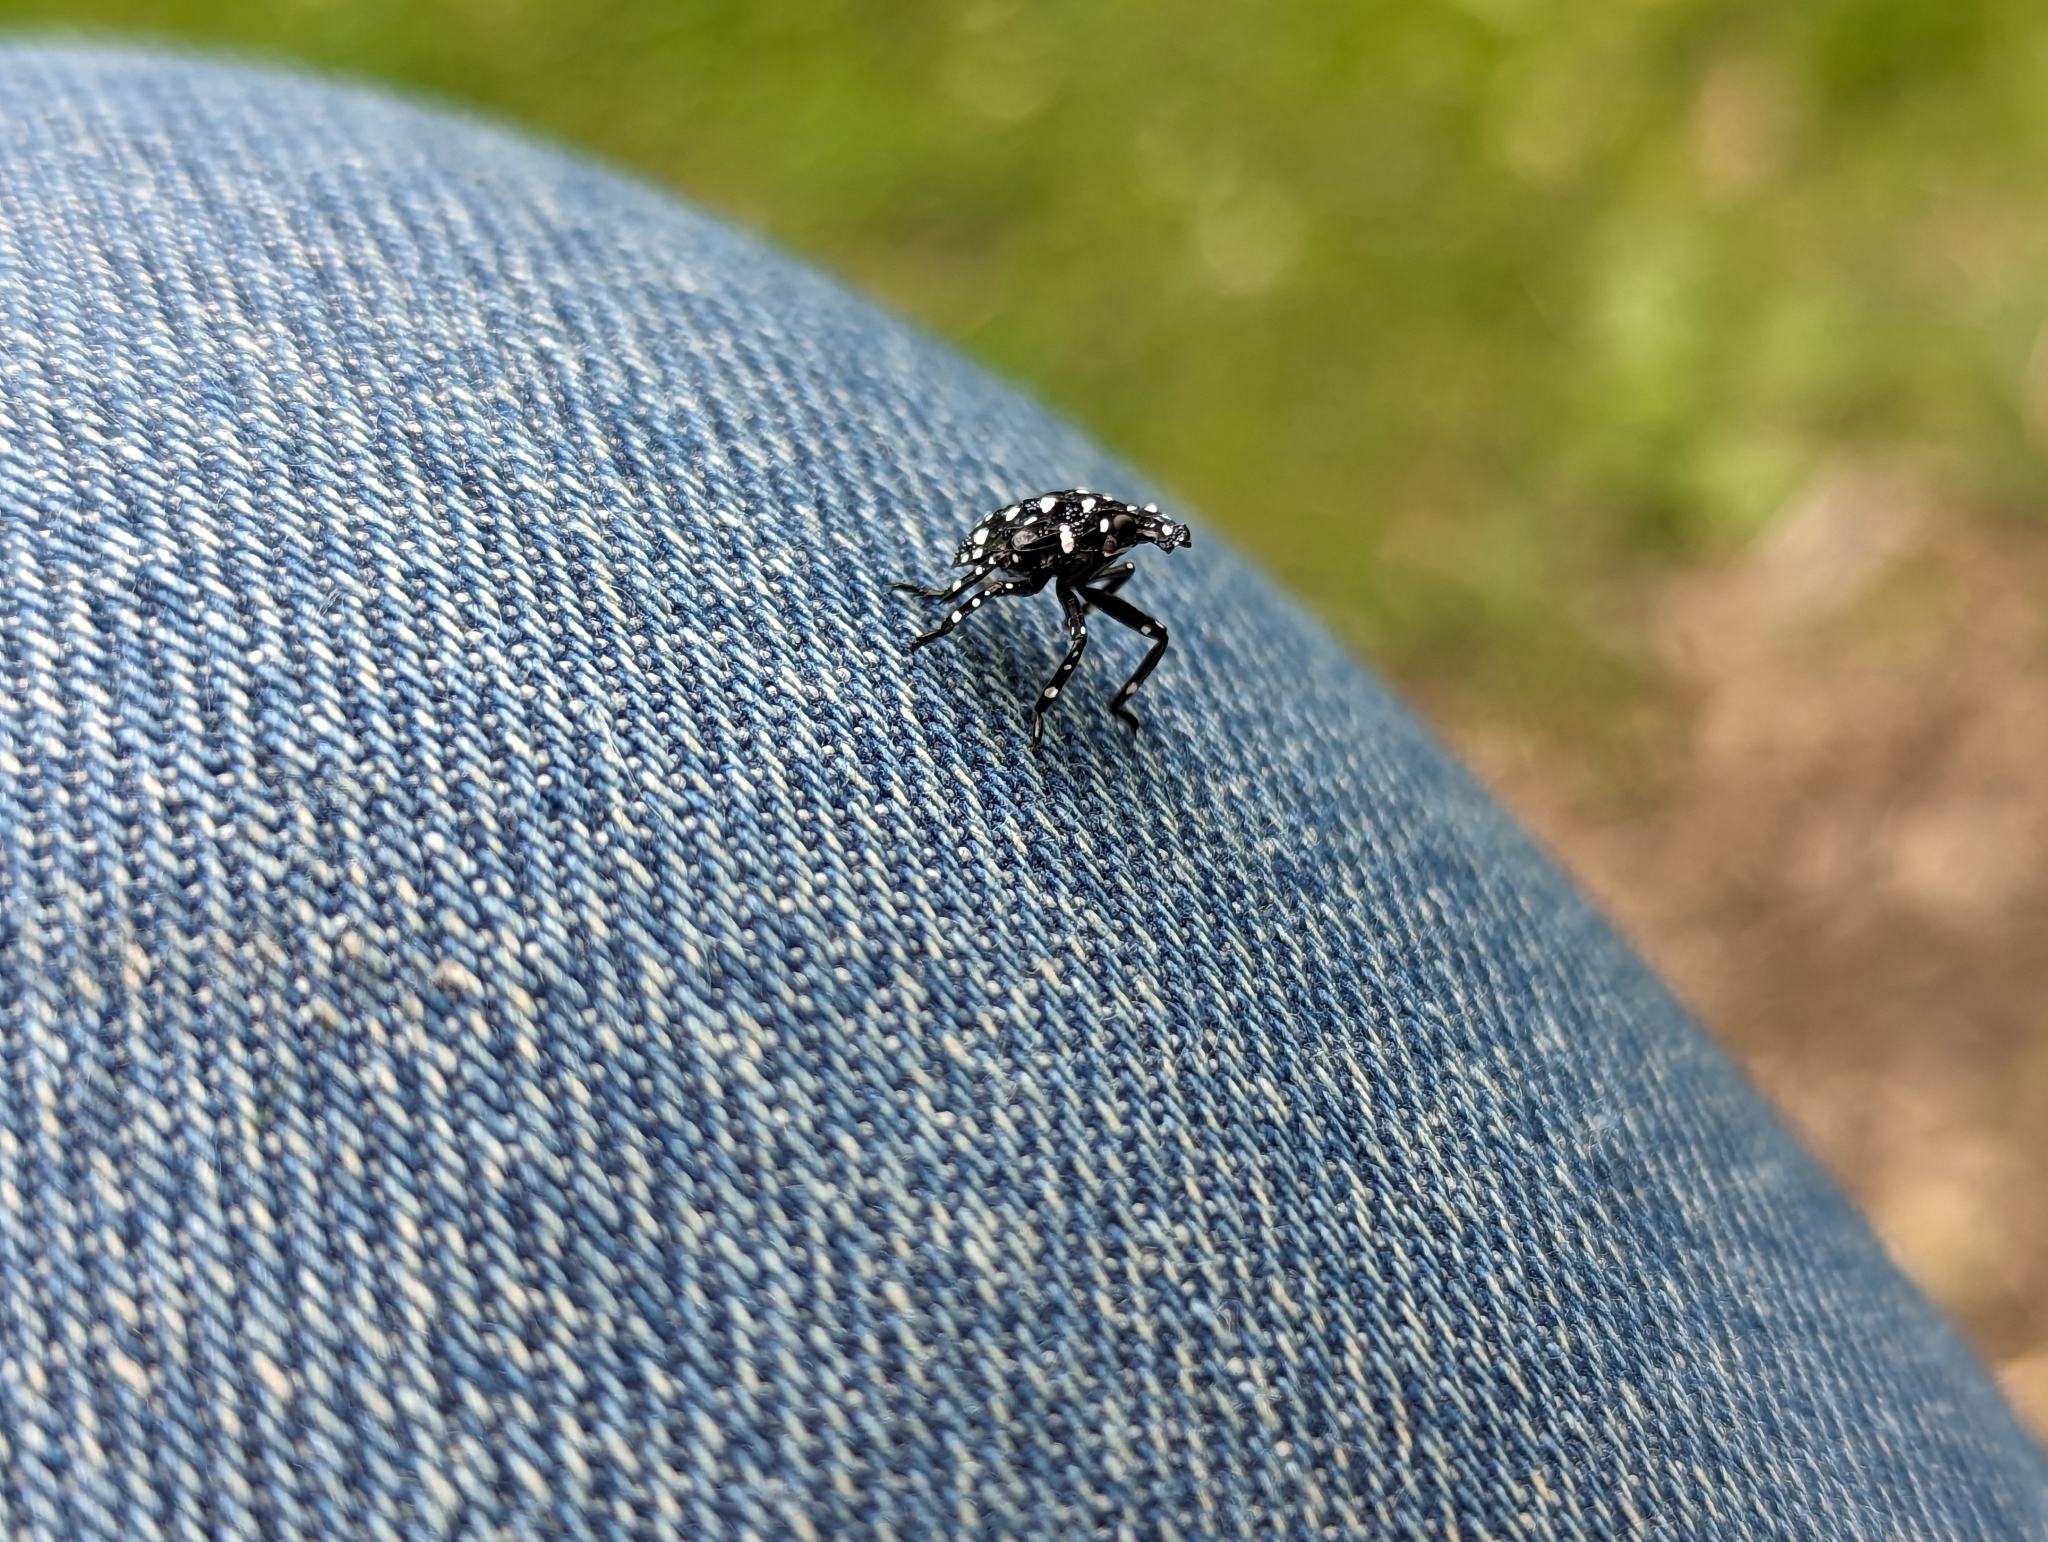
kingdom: Animalia
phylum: Arthropoda
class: Insecta
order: Hemiptera
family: Fulgoridae
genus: Lycorma
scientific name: Lycorma delicatula
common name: Spotted lanternfly
